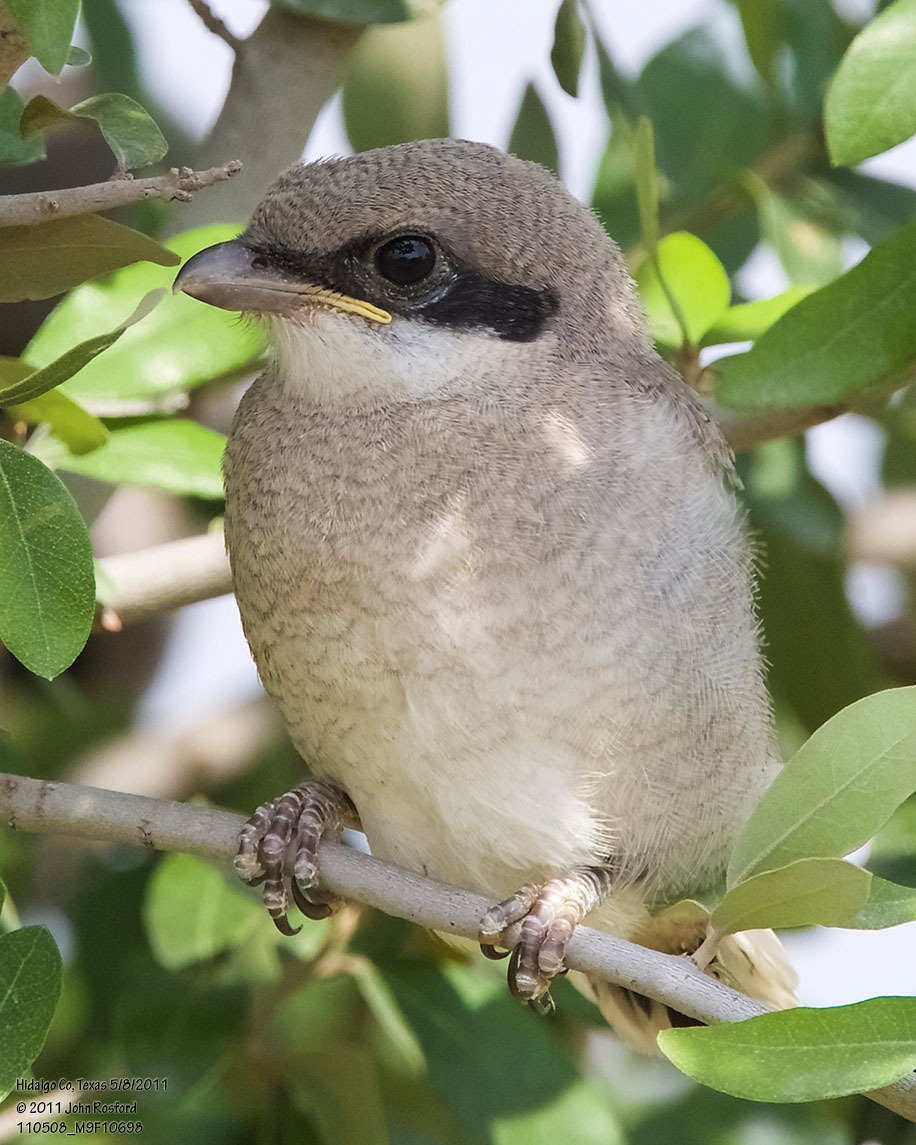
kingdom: Animalia
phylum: Chordata
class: Aves
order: Passeriformes
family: Laniidae
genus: Lanius
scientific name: Lanius ludovicianus
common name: Loggerhead shrike
